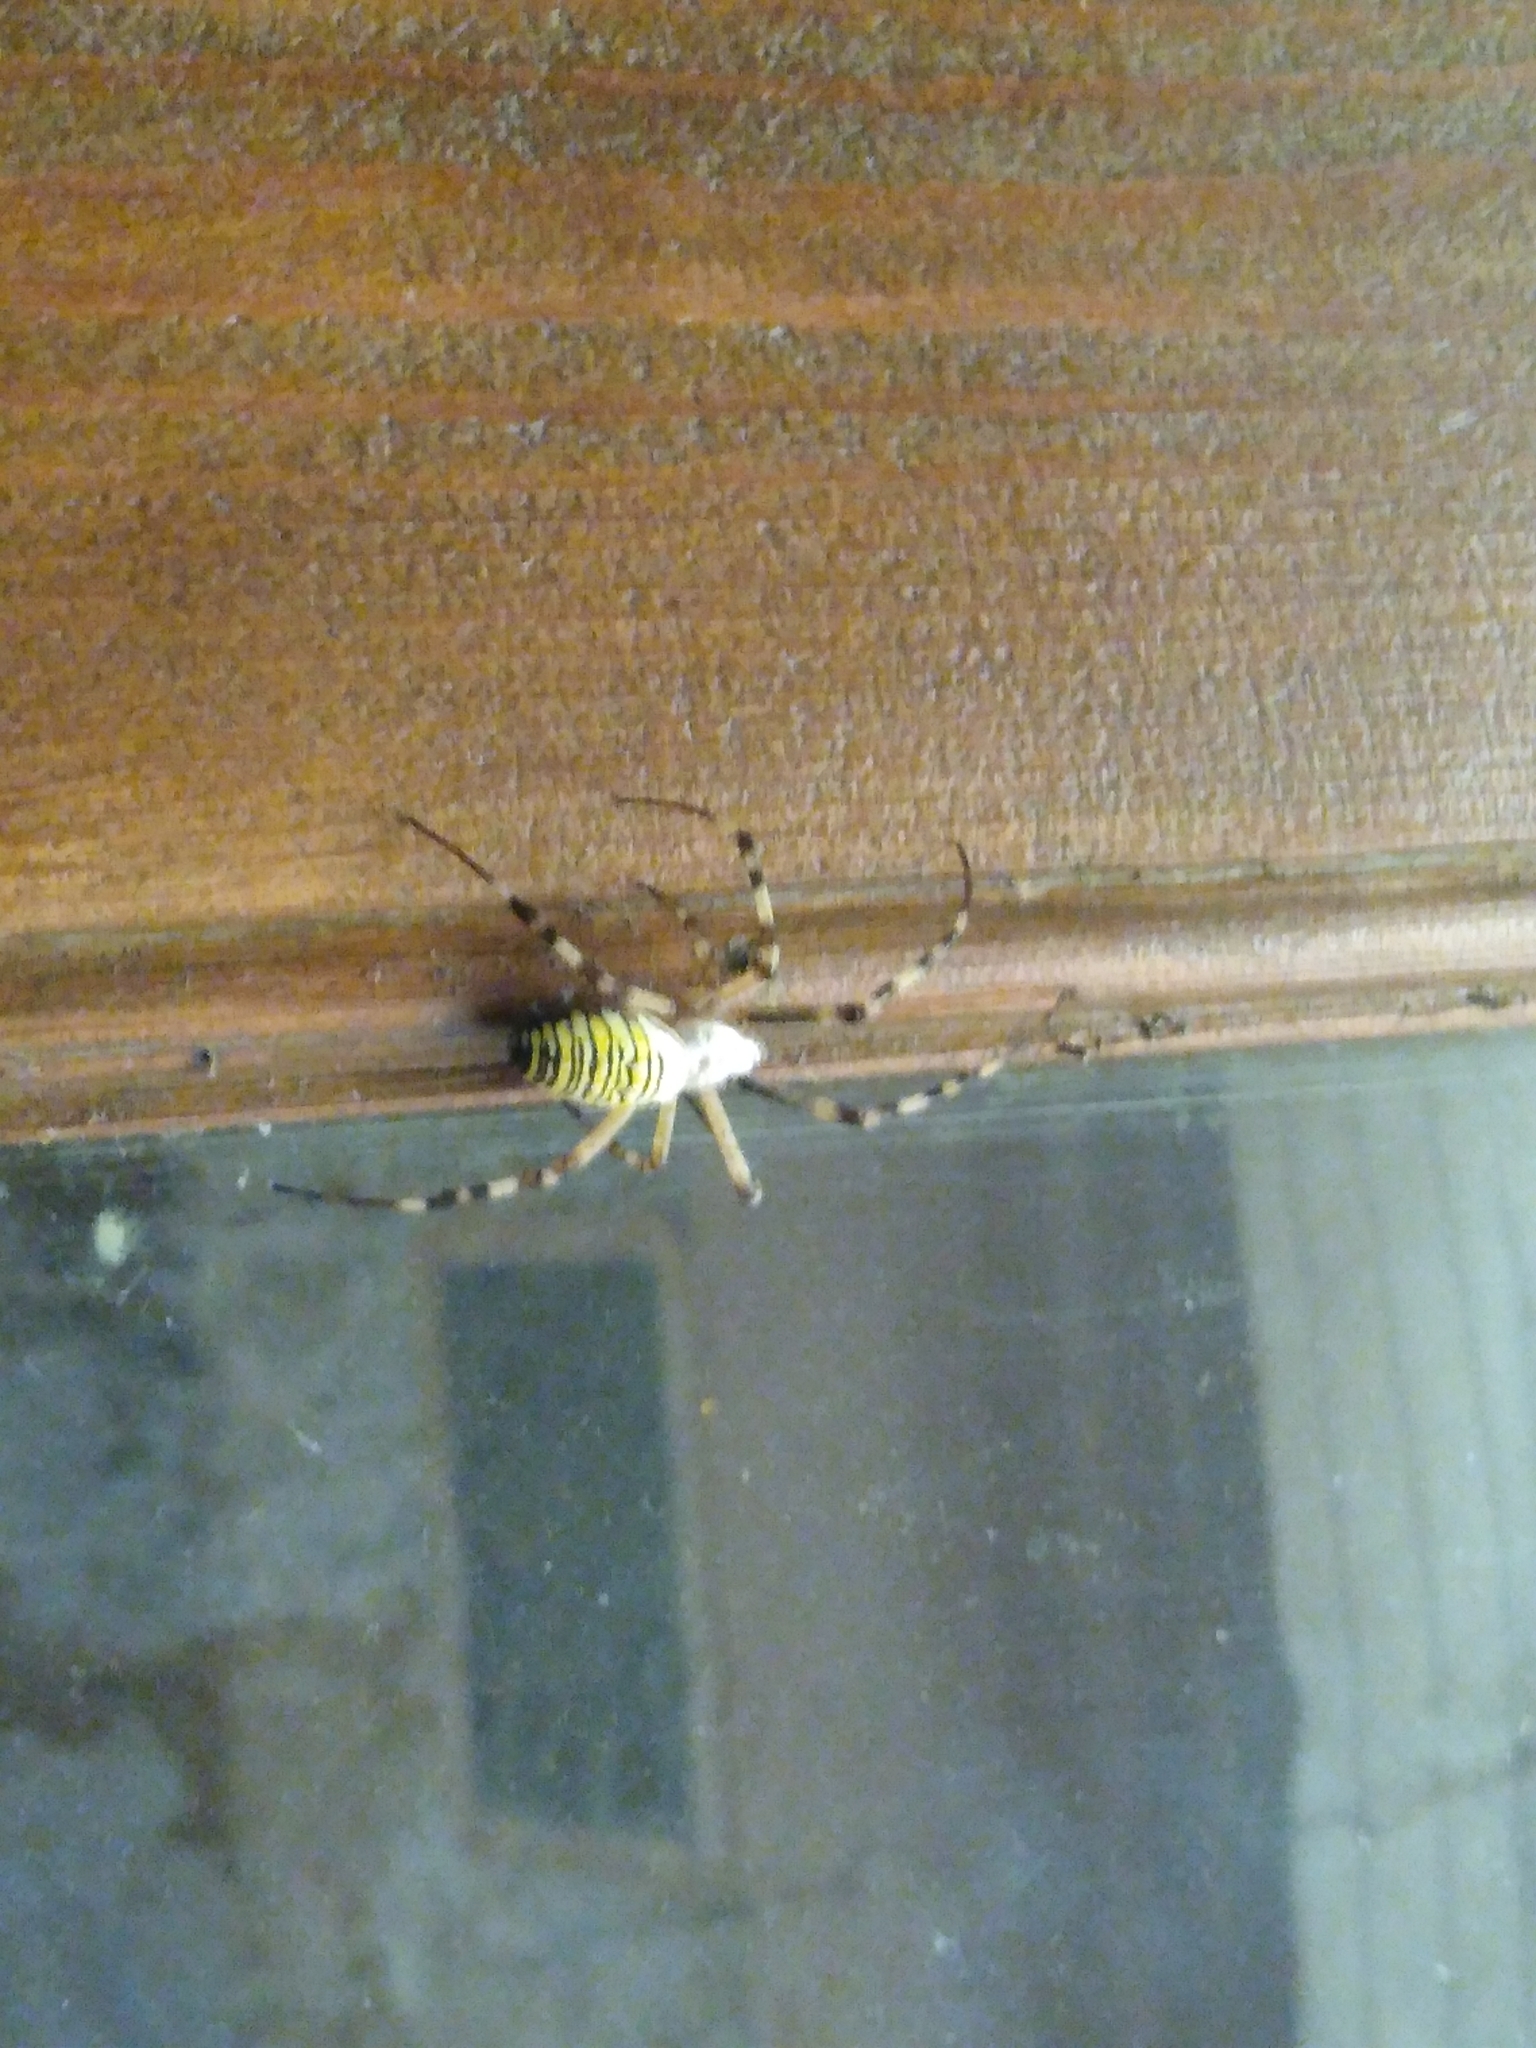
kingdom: Animalia
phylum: Arthropoda
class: Arachnida
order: Araneae
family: Araneidae
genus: Argiope
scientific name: Argiope bruennichi
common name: Wasp spider
